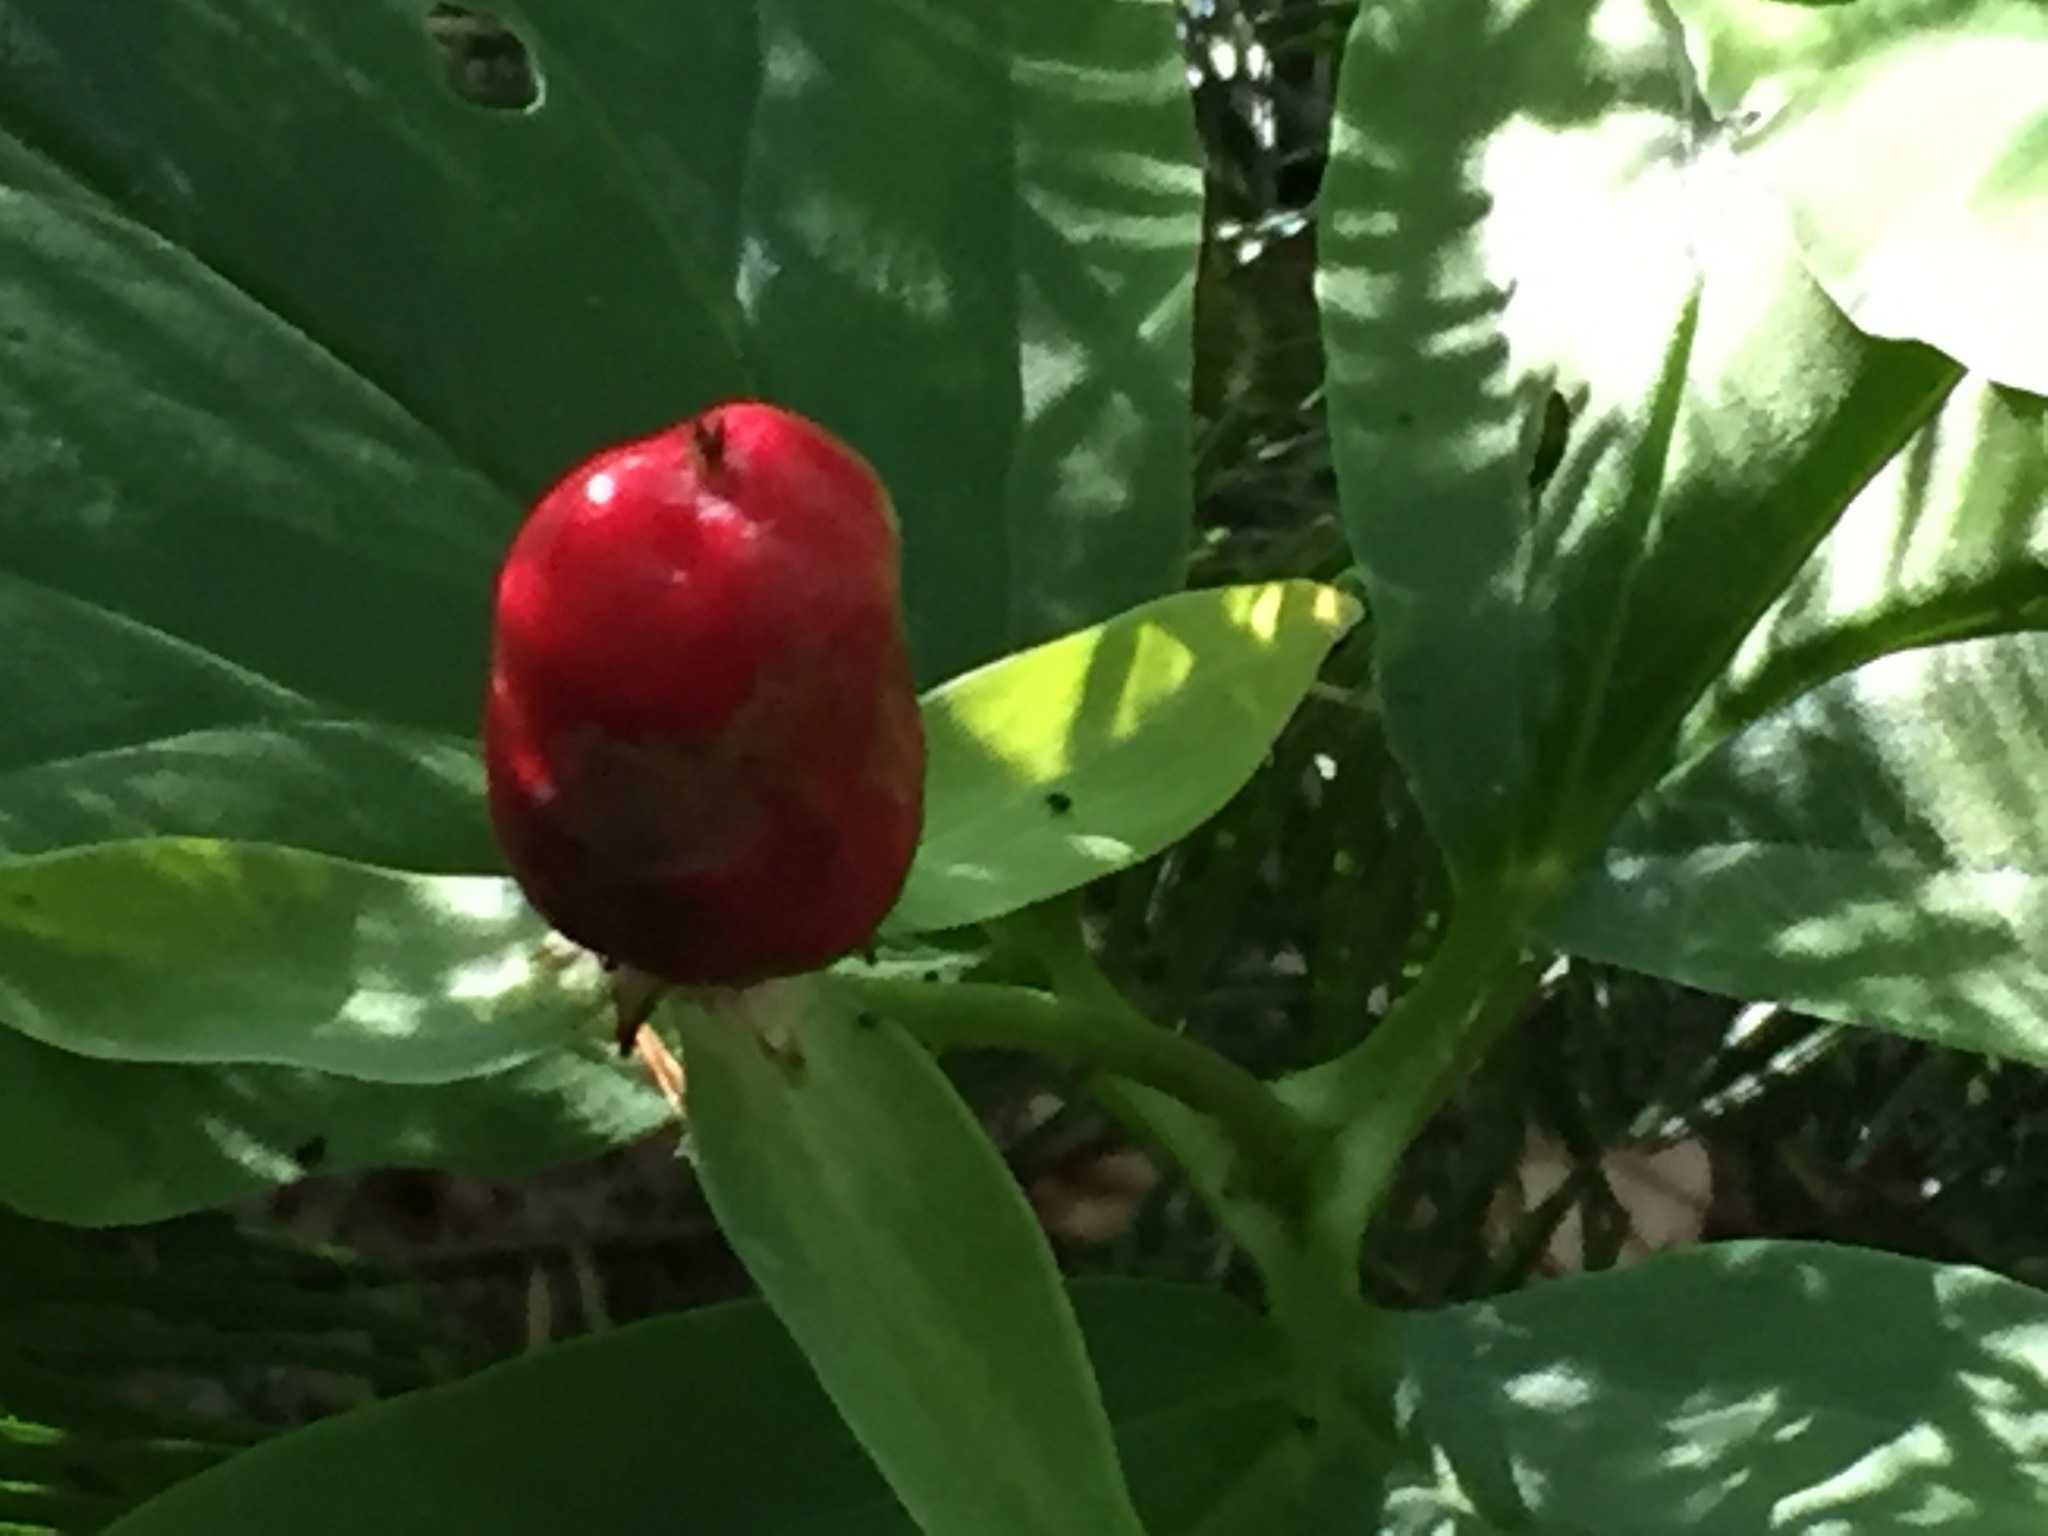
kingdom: Plantae
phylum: Tracheophyta
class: Liliopsida
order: Liliales
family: Melanthiaceae
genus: Trillium
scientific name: Trillium undulatum
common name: Paint trillium
